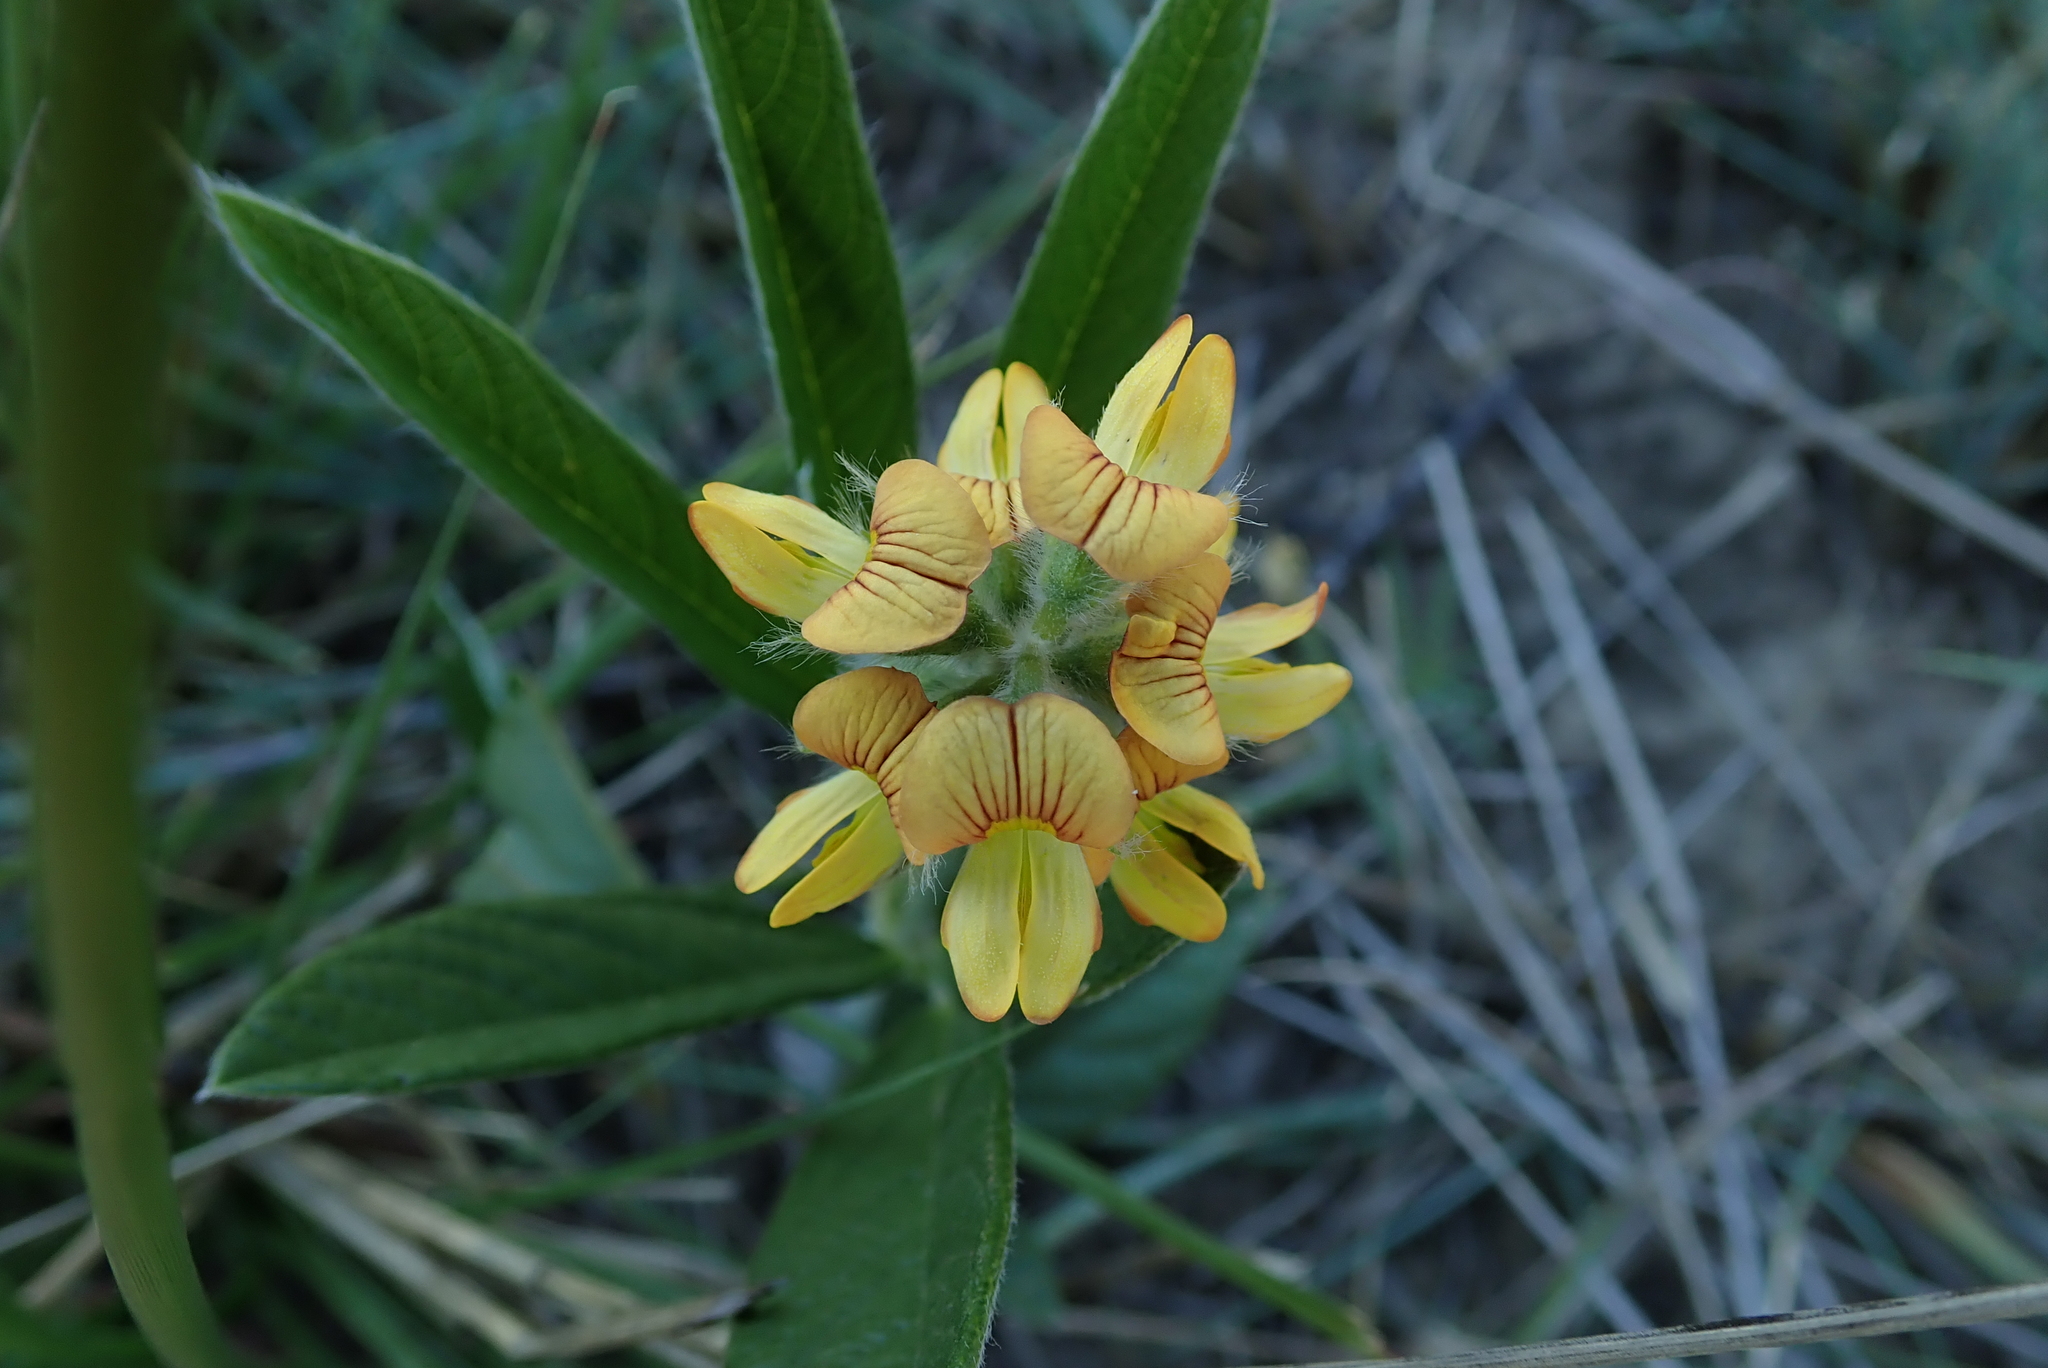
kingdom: Plantae
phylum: Tracheophyta
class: Magnoliopsida
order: Fabales
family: Fabaceae
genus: Eriosema
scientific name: Eriosema salignum
